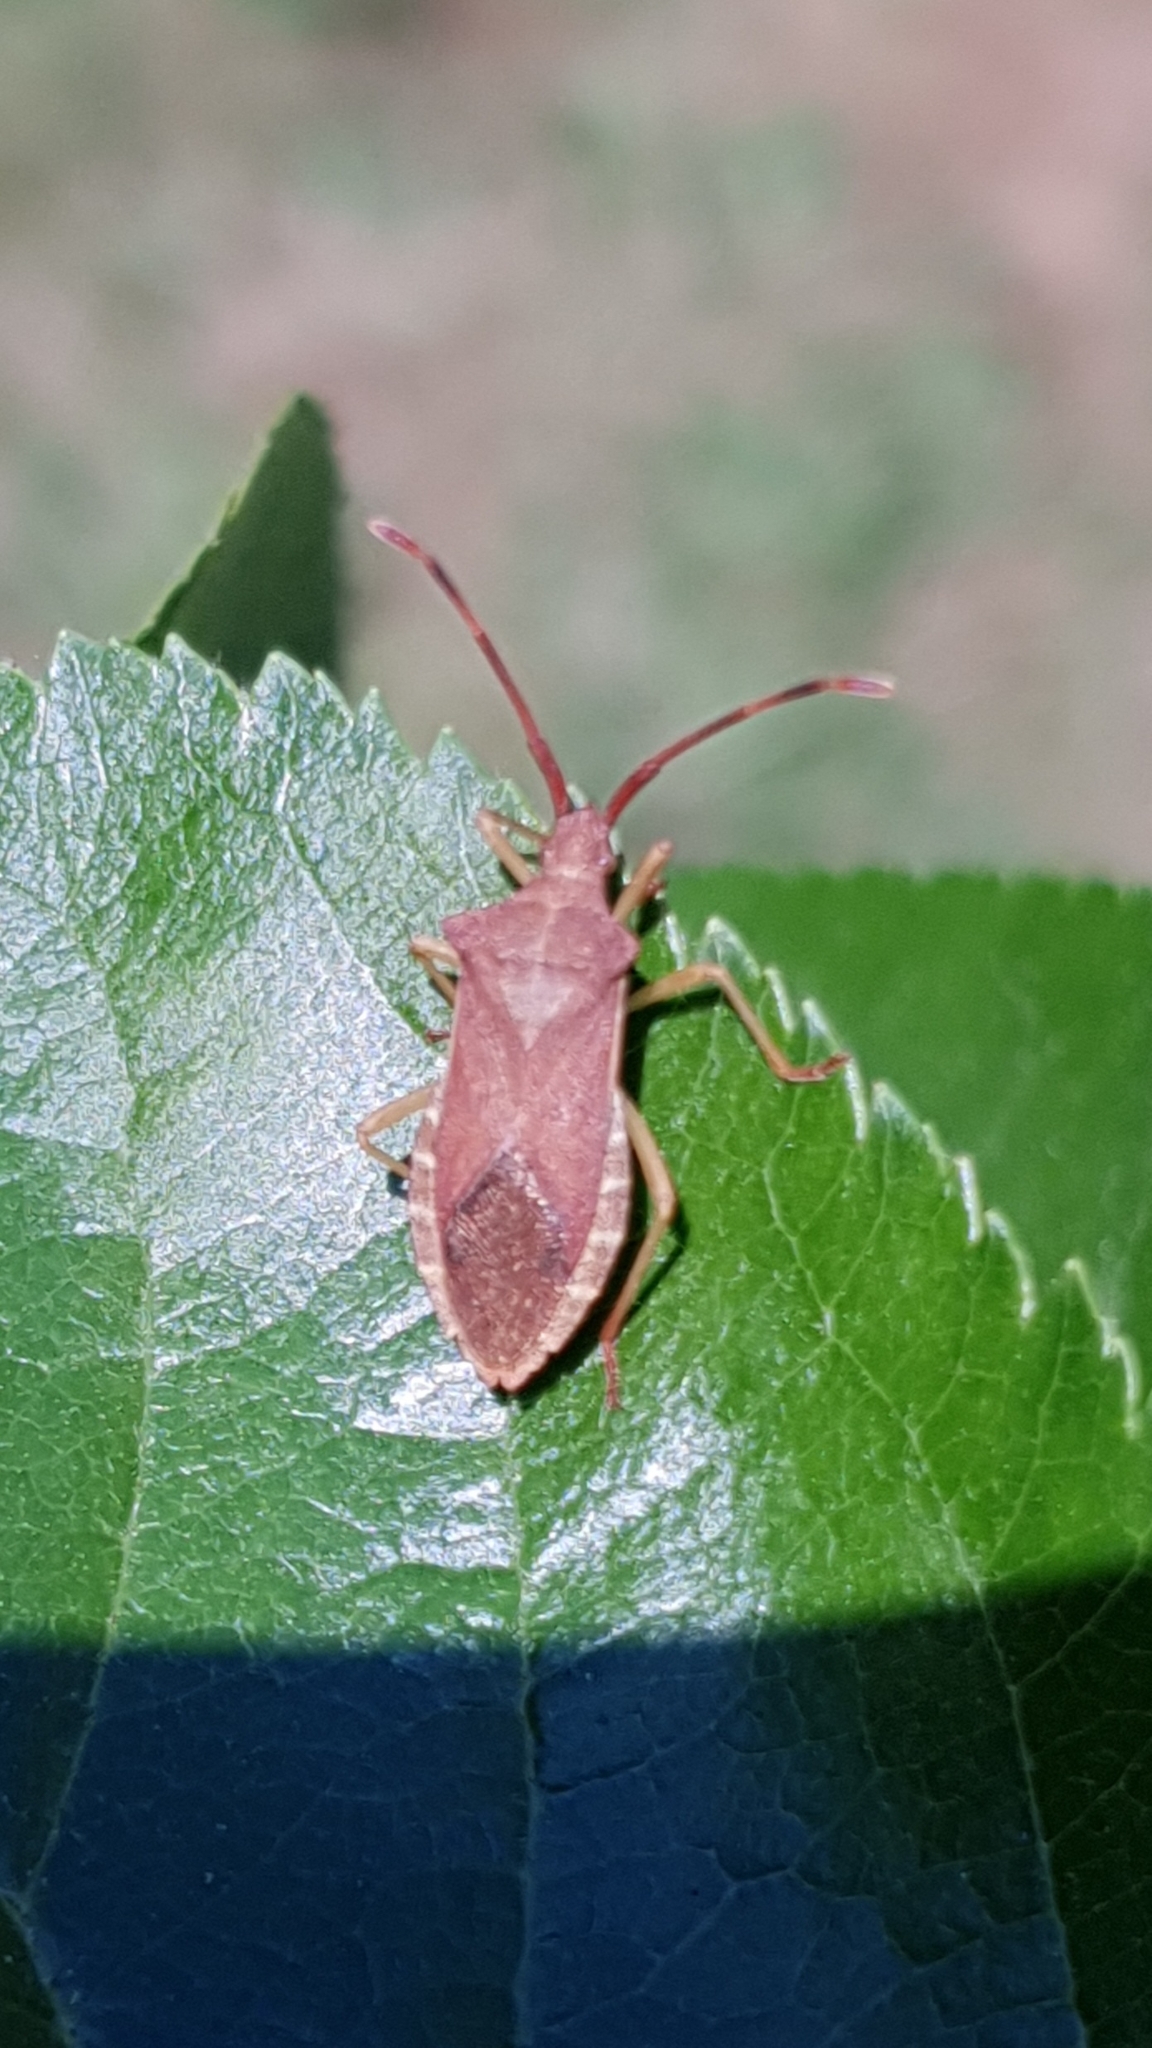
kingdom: Animalia
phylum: Arthropoda
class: Insecta
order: Hemiptera
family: Coreidae
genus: Gonocerus
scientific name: Gonocerus acuteangulatus
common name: Box bug
